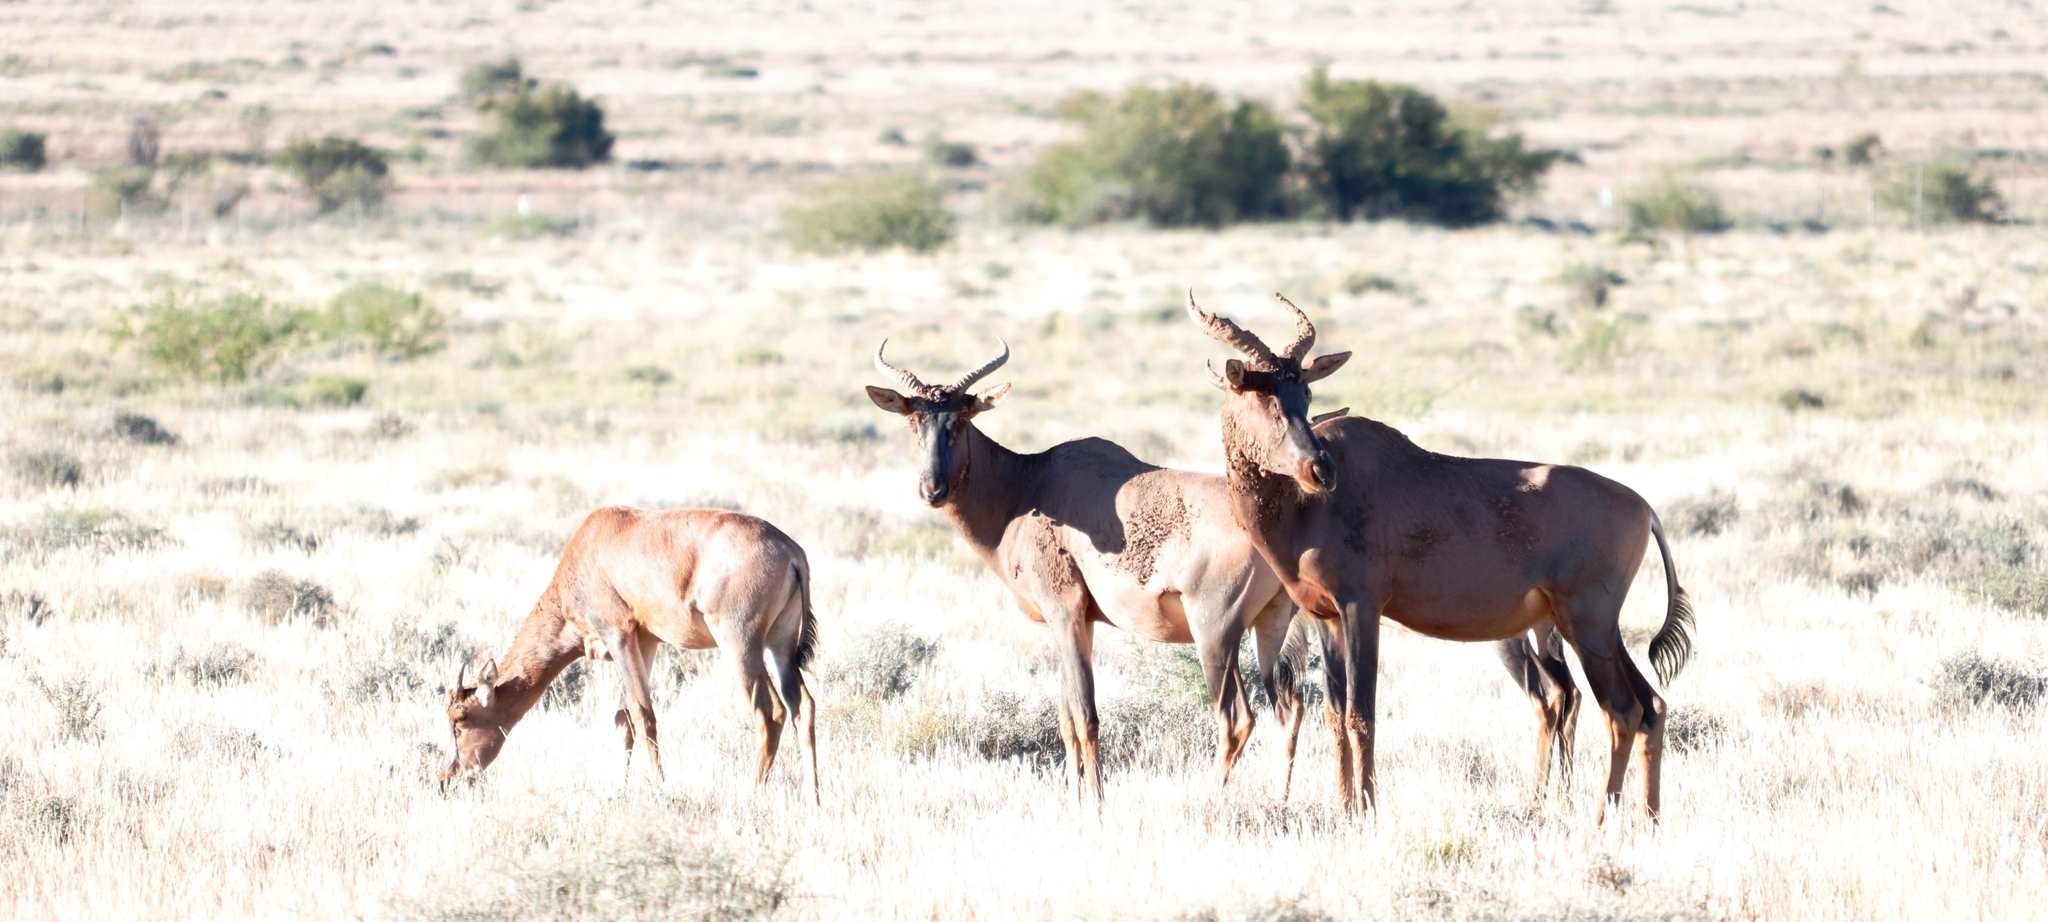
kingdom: Animalia
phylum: Chordata
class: Mammalia
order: Artiodactyla
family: Bovidae
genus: Damaliscus
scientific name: Damaliscus lunatus
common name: Common tsessebe
